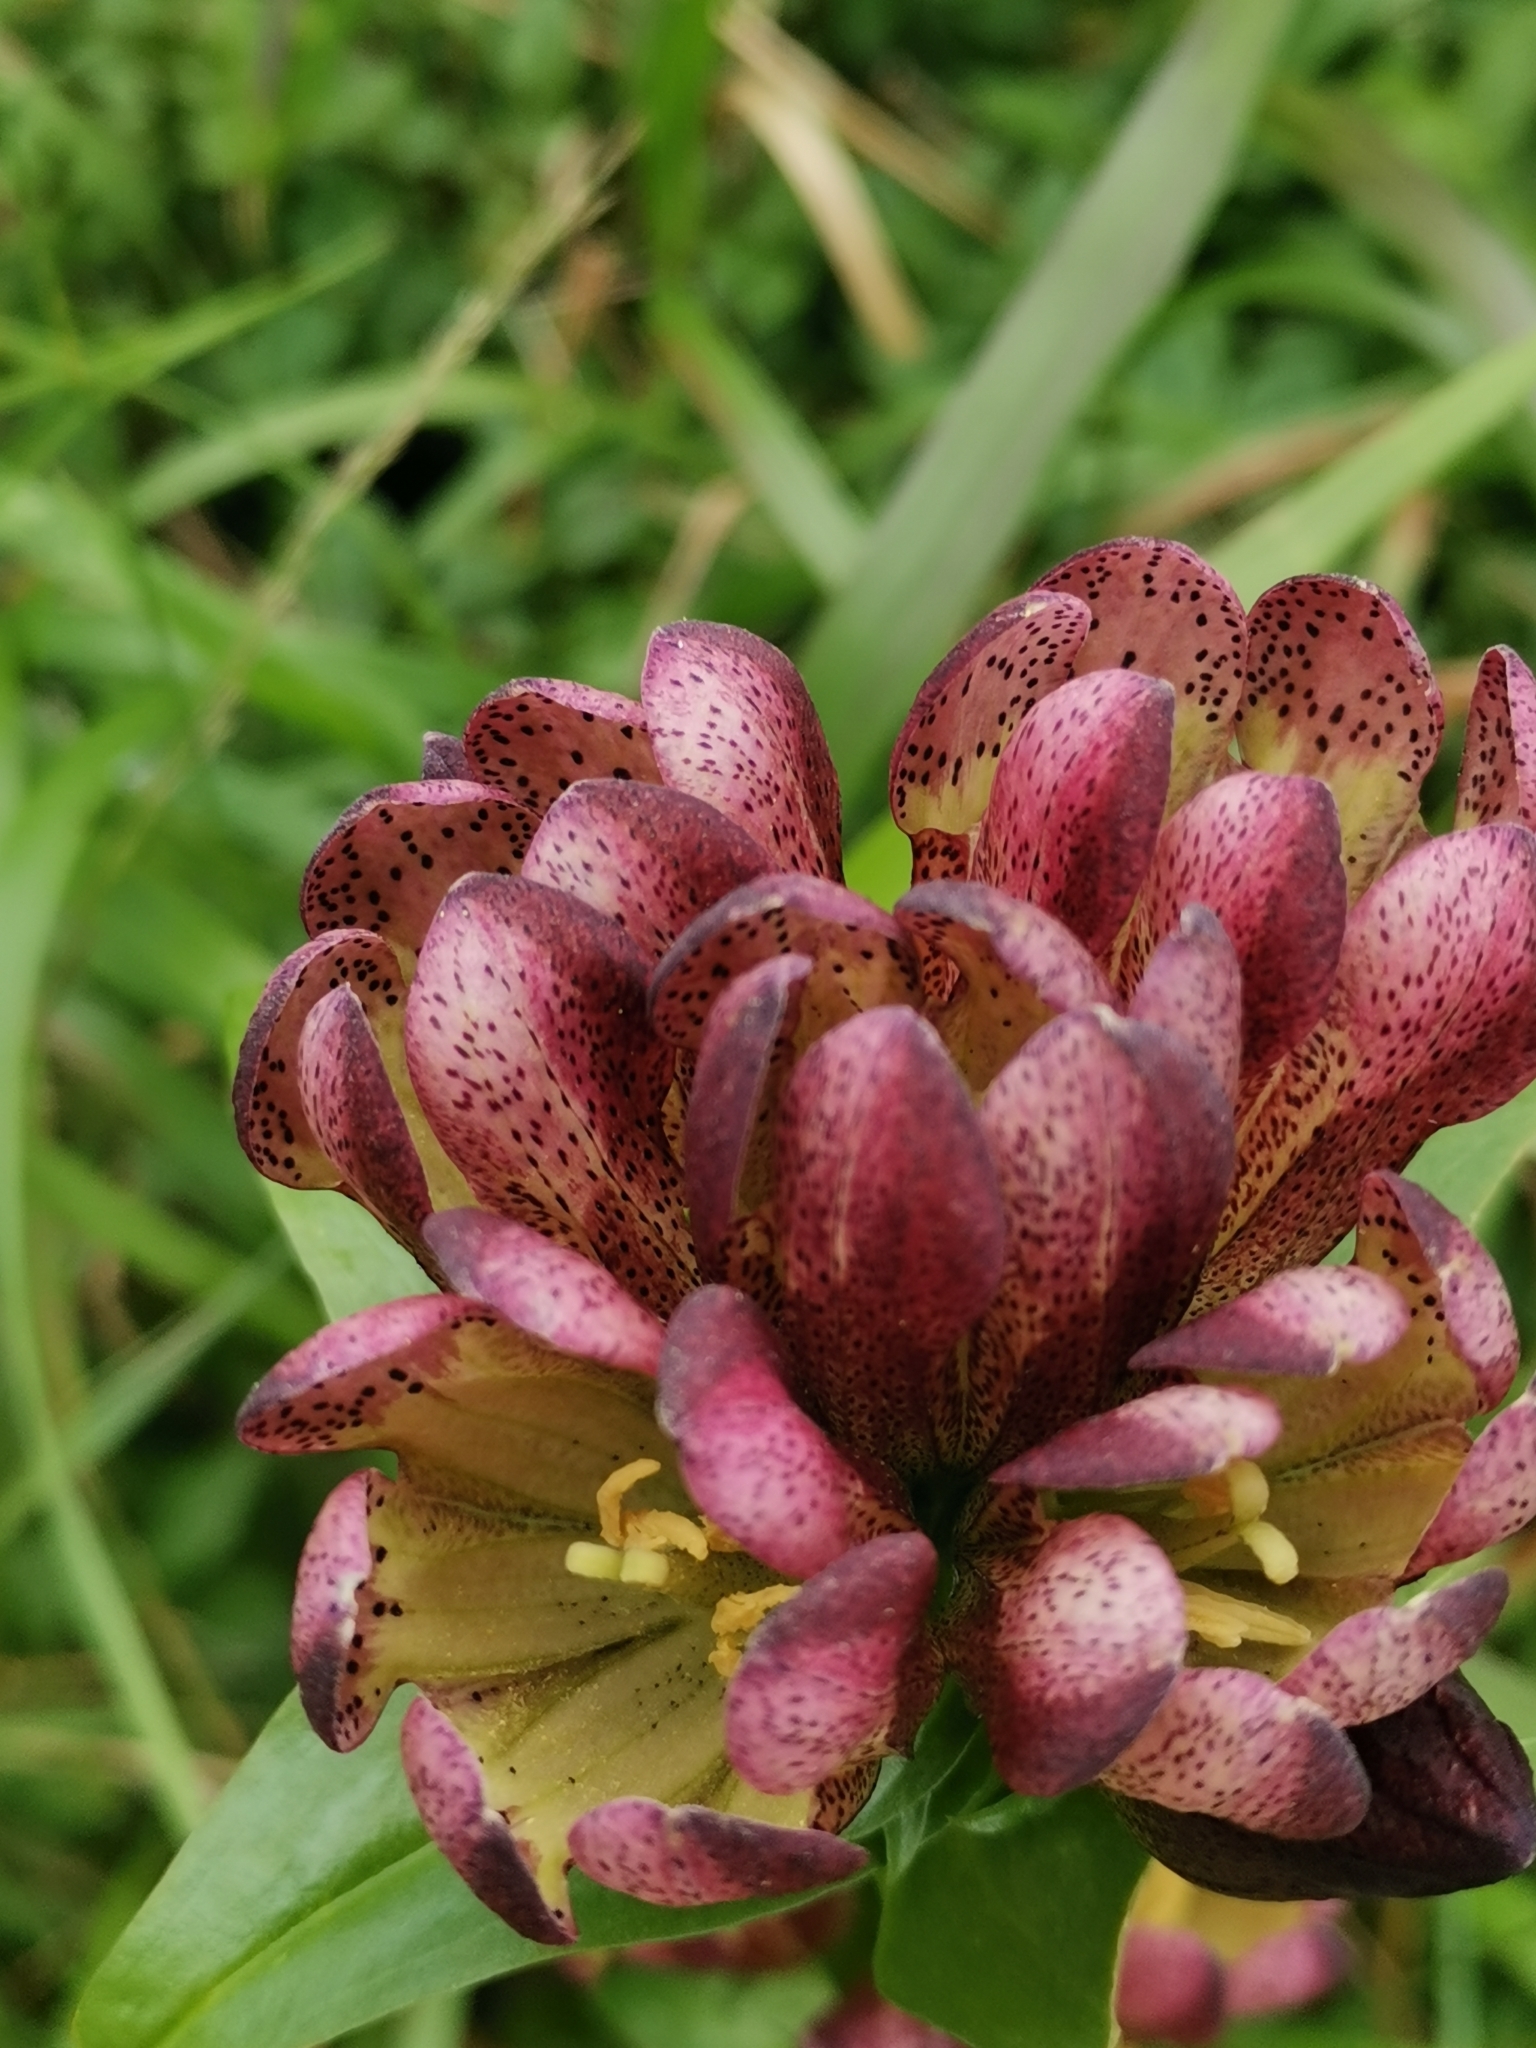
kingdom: Plantae
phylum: Tracheophyta
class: Magnoliopsida
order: Gentianales
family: Gentianaceae
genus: Gentiana
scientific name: Gentiana pannonica
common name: Hungarian gentian
